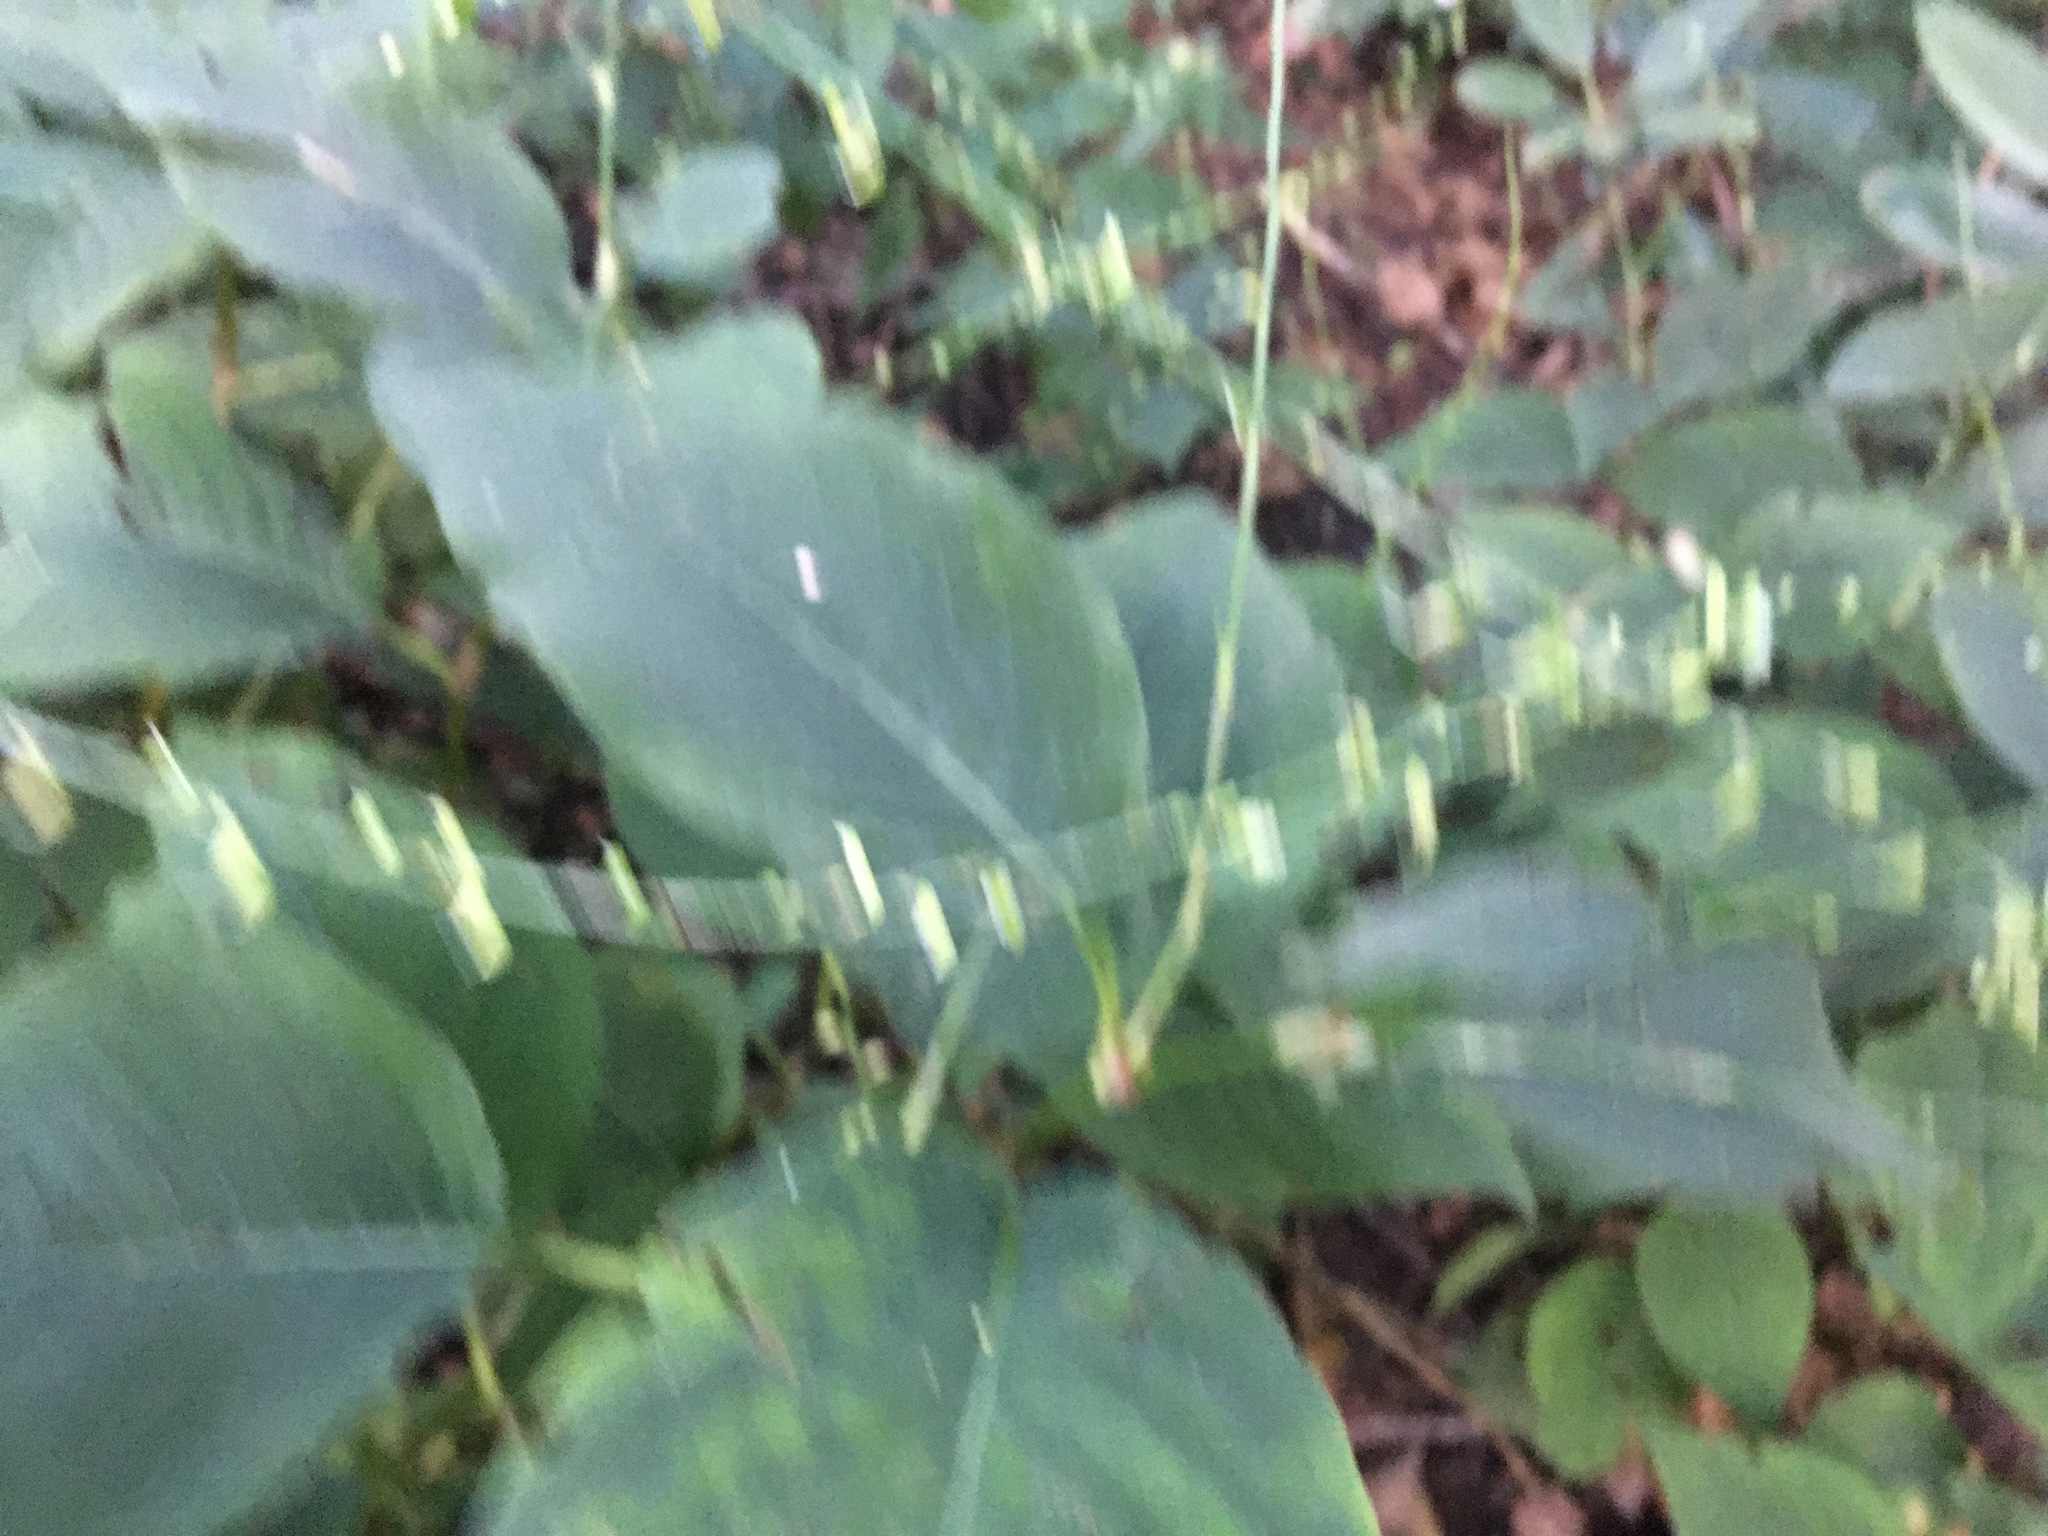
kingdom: Plantae
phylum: Tracheophyta
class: Magnoliopsida
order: Caryophyllales
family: Polygonaceae
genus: Persicaria
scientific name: Persicaria virginiana
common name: Jumpseed
